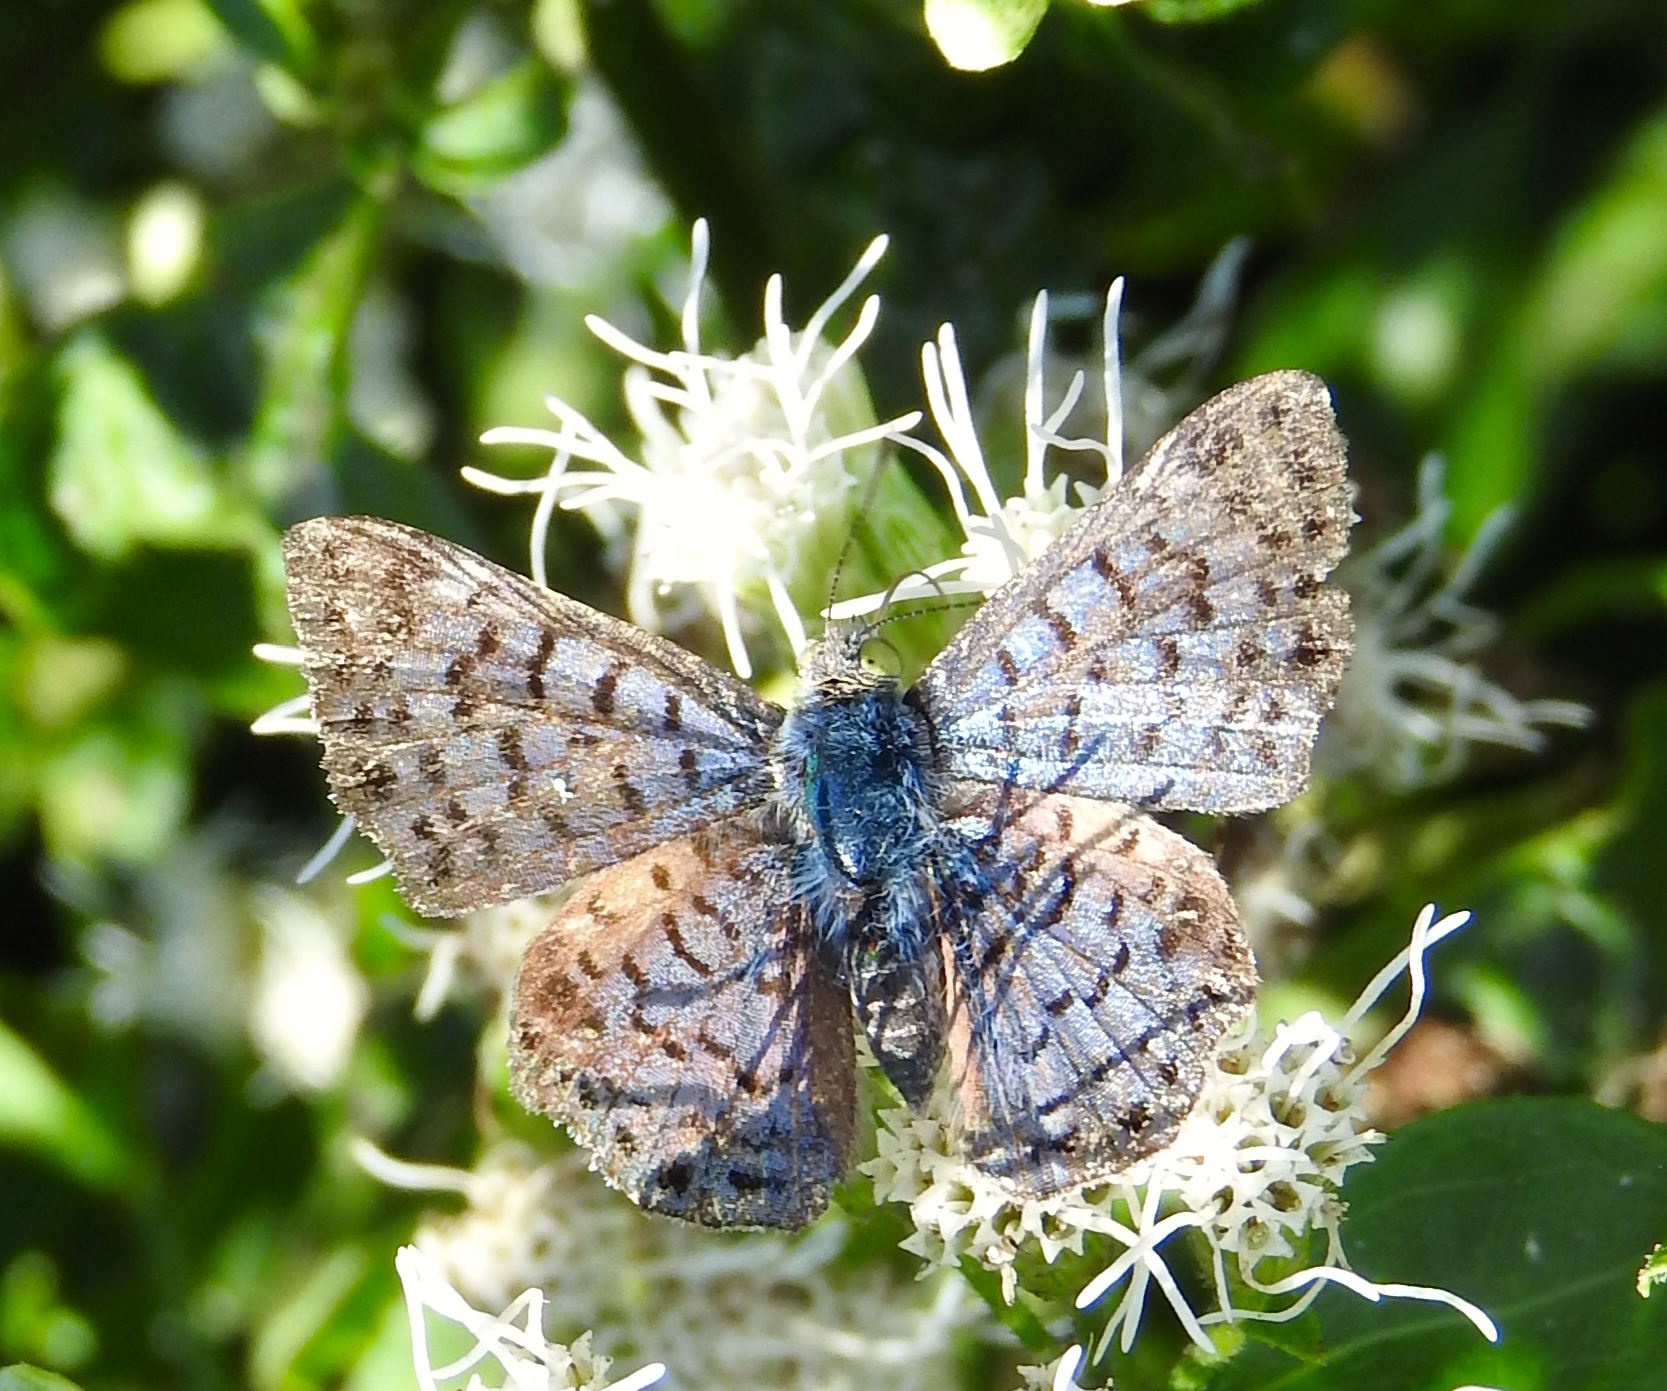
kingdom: Animalia
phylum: Arthropoda
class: Insecta
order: Lepidoptera
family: Riodinidae
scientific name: Riodinidae
